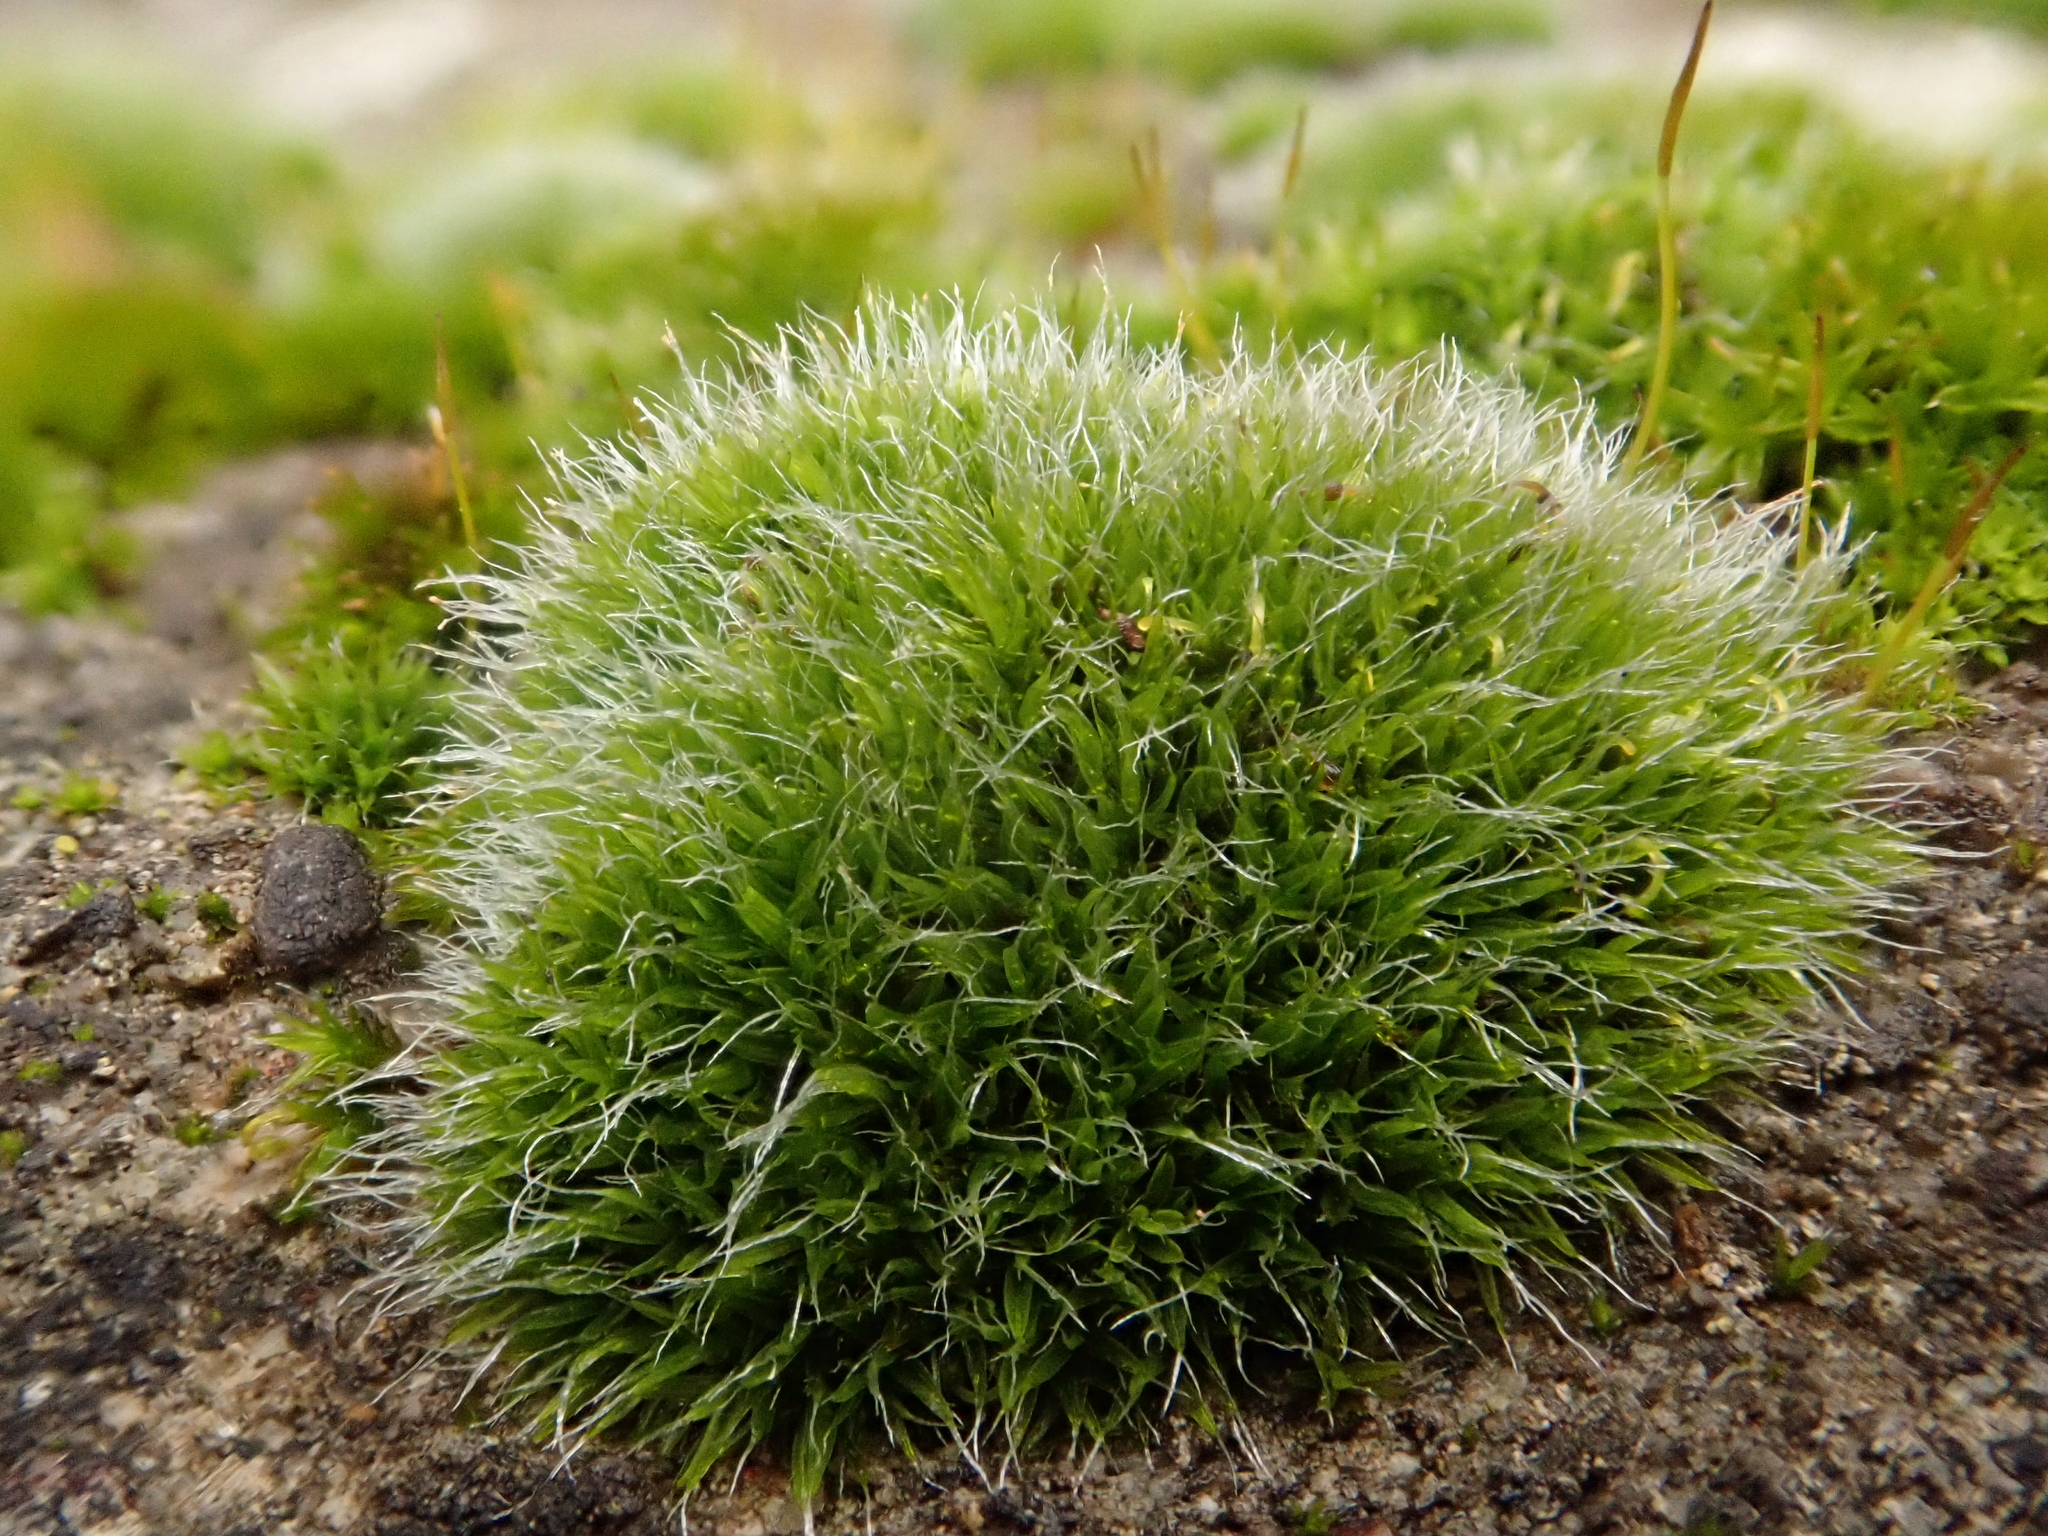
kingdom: Plantae
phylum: Bryophyta
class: Bryopsida
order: Grimmiales
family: Grimmiaceae
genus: Grimmia
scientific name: Grimmia pulvinata
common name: Grey-cushioned grimmia
